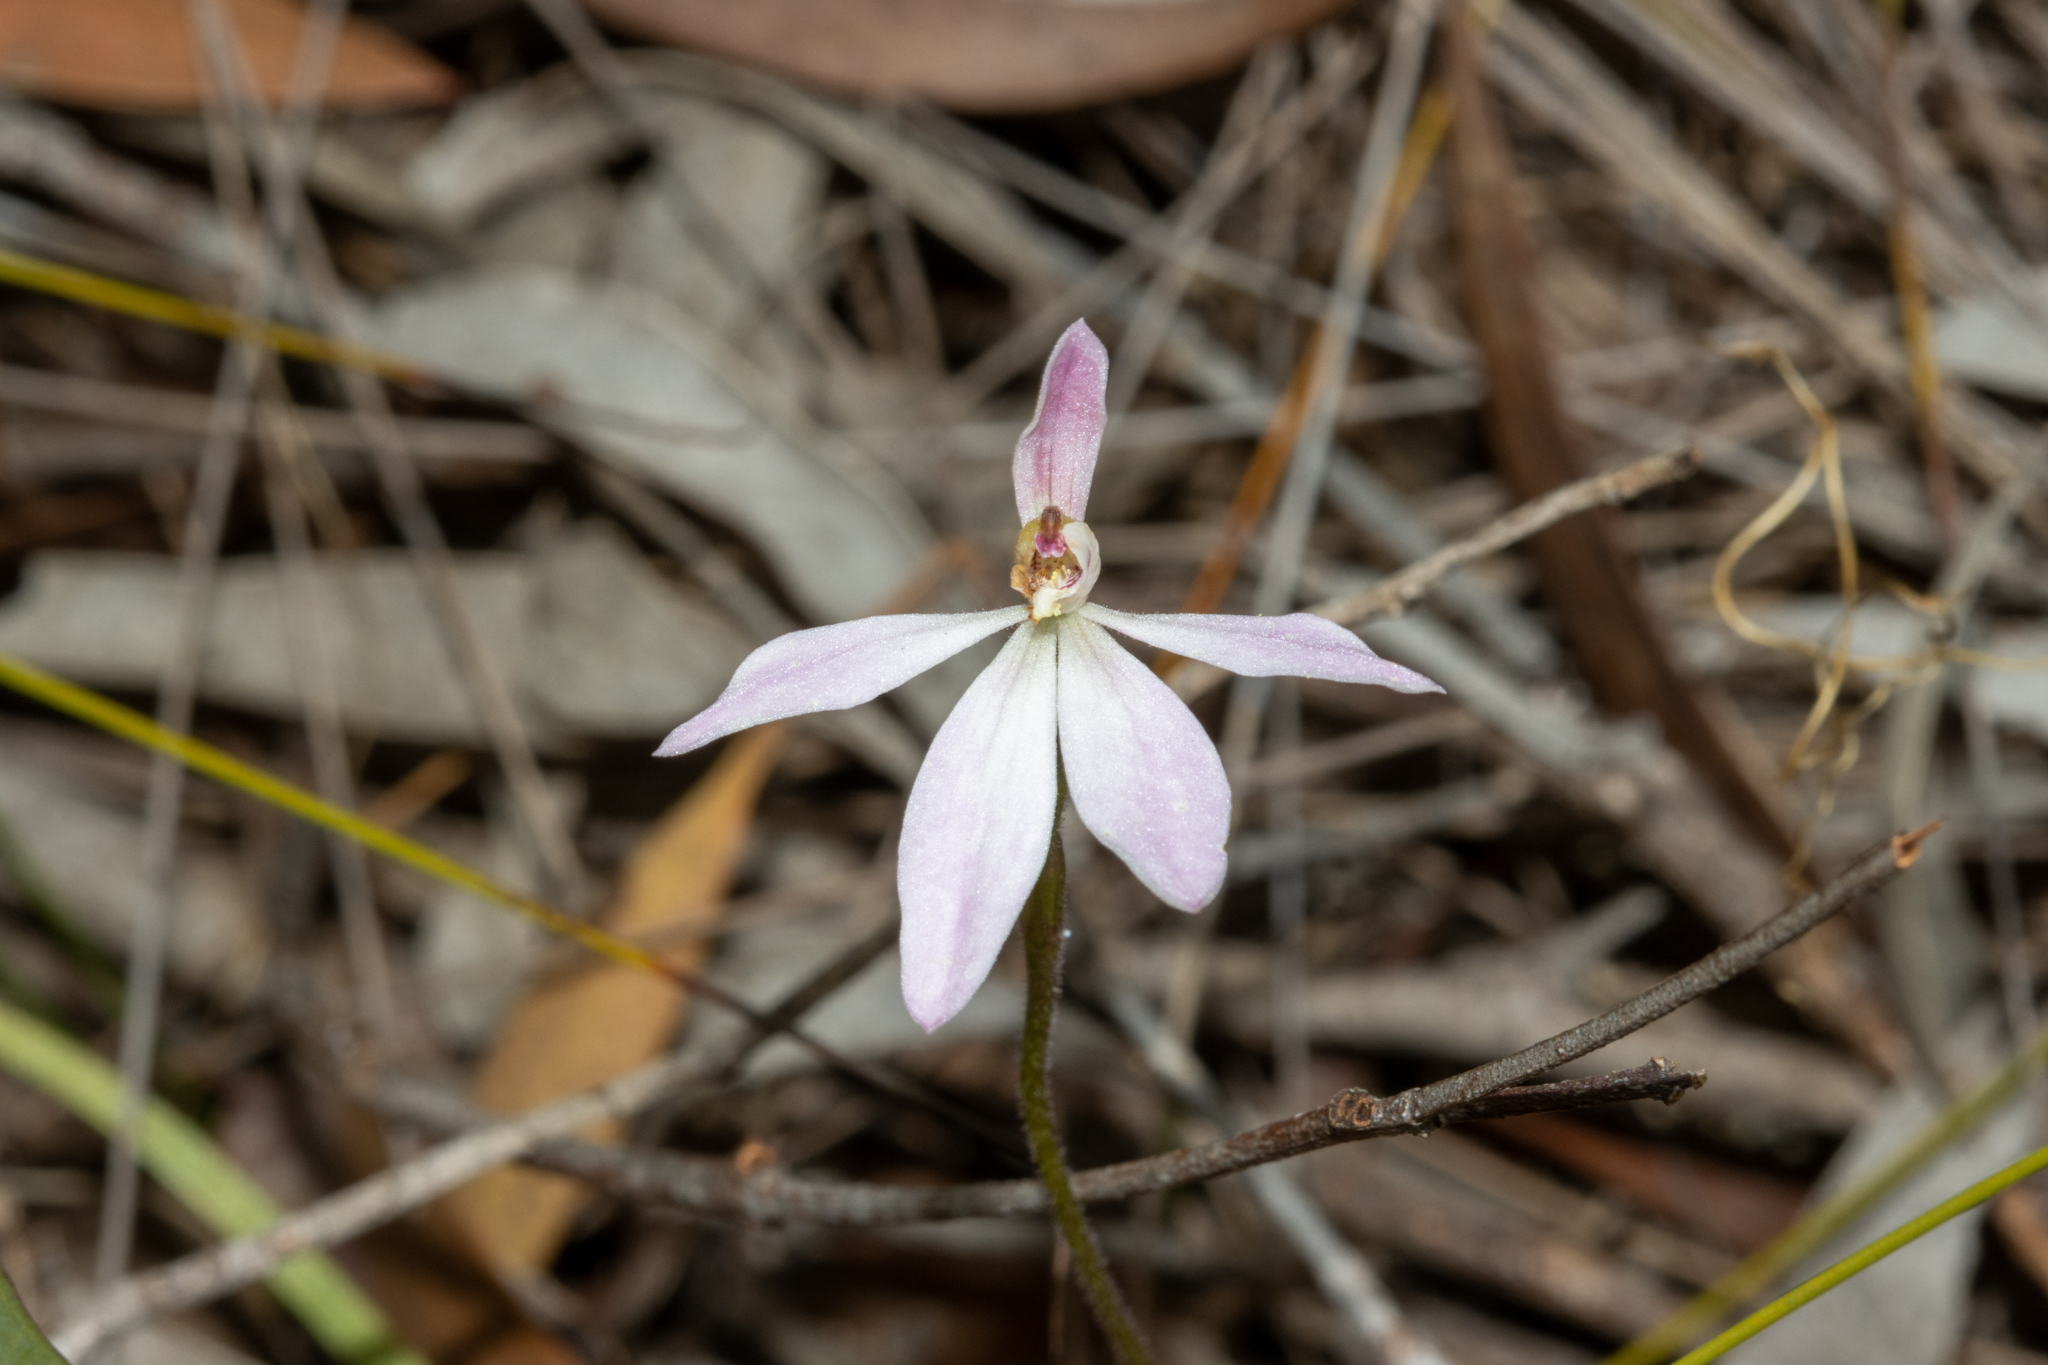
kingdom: Plantae
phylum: Tracheophyta
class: Liliopsida
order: Asparagales
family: Orchidaceae
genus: Caladenia
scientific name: Caladenia carnea
